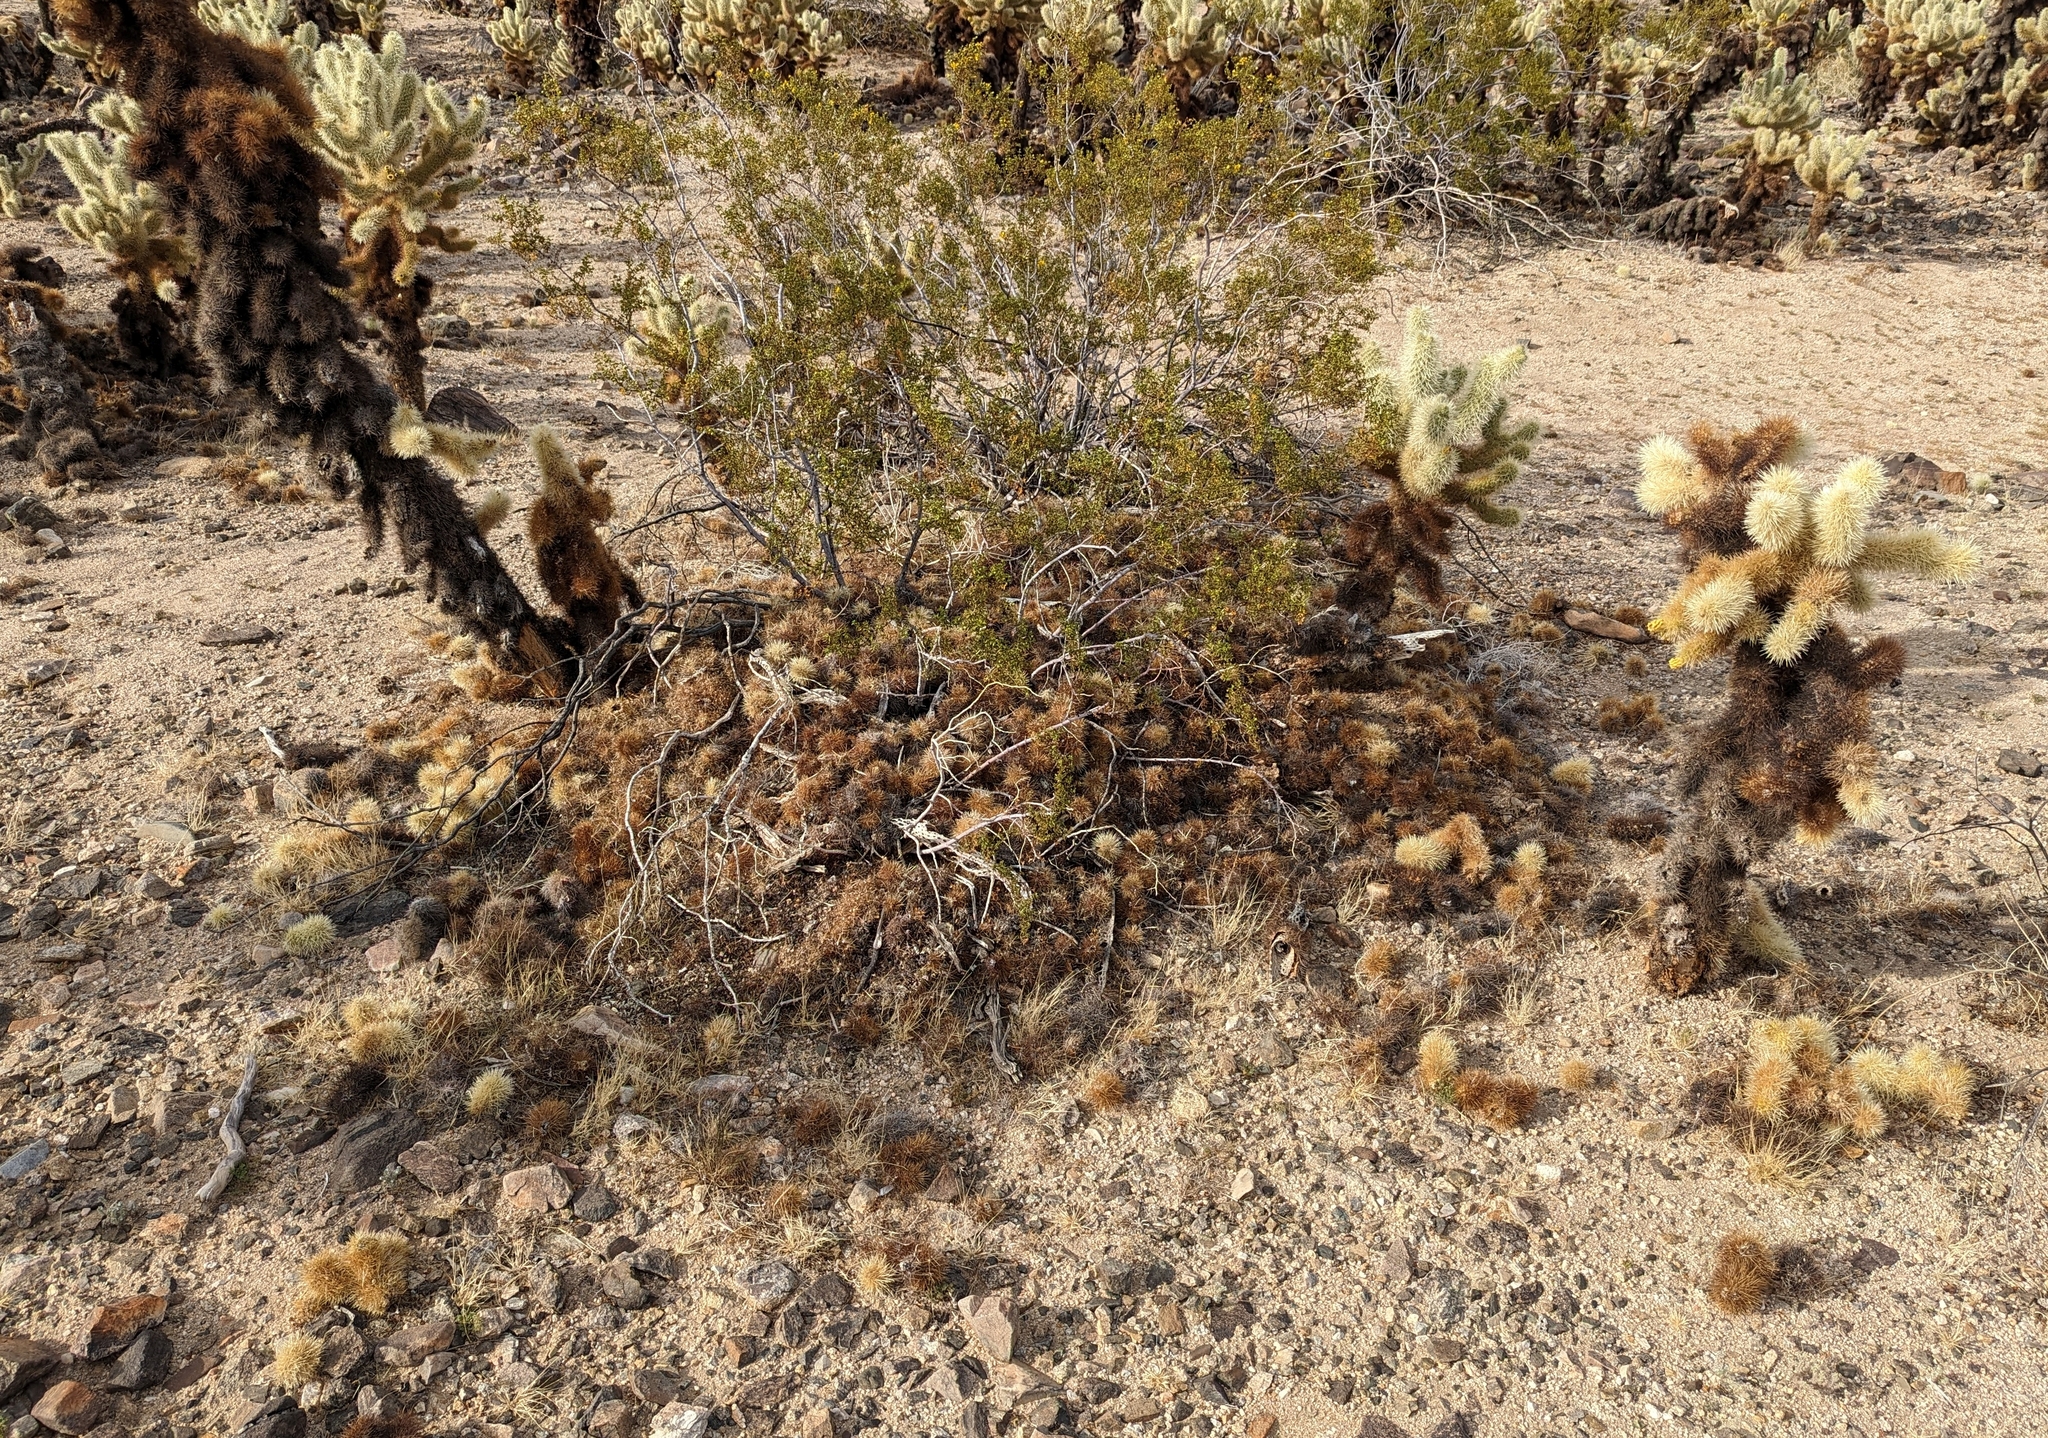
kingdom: Plantae
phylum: Tracheophyta
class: Magnoliopsida
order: Caryophyllales
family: Cactaceae
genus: Cylindropuntia
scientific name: Cylindropuntia fosbergii
